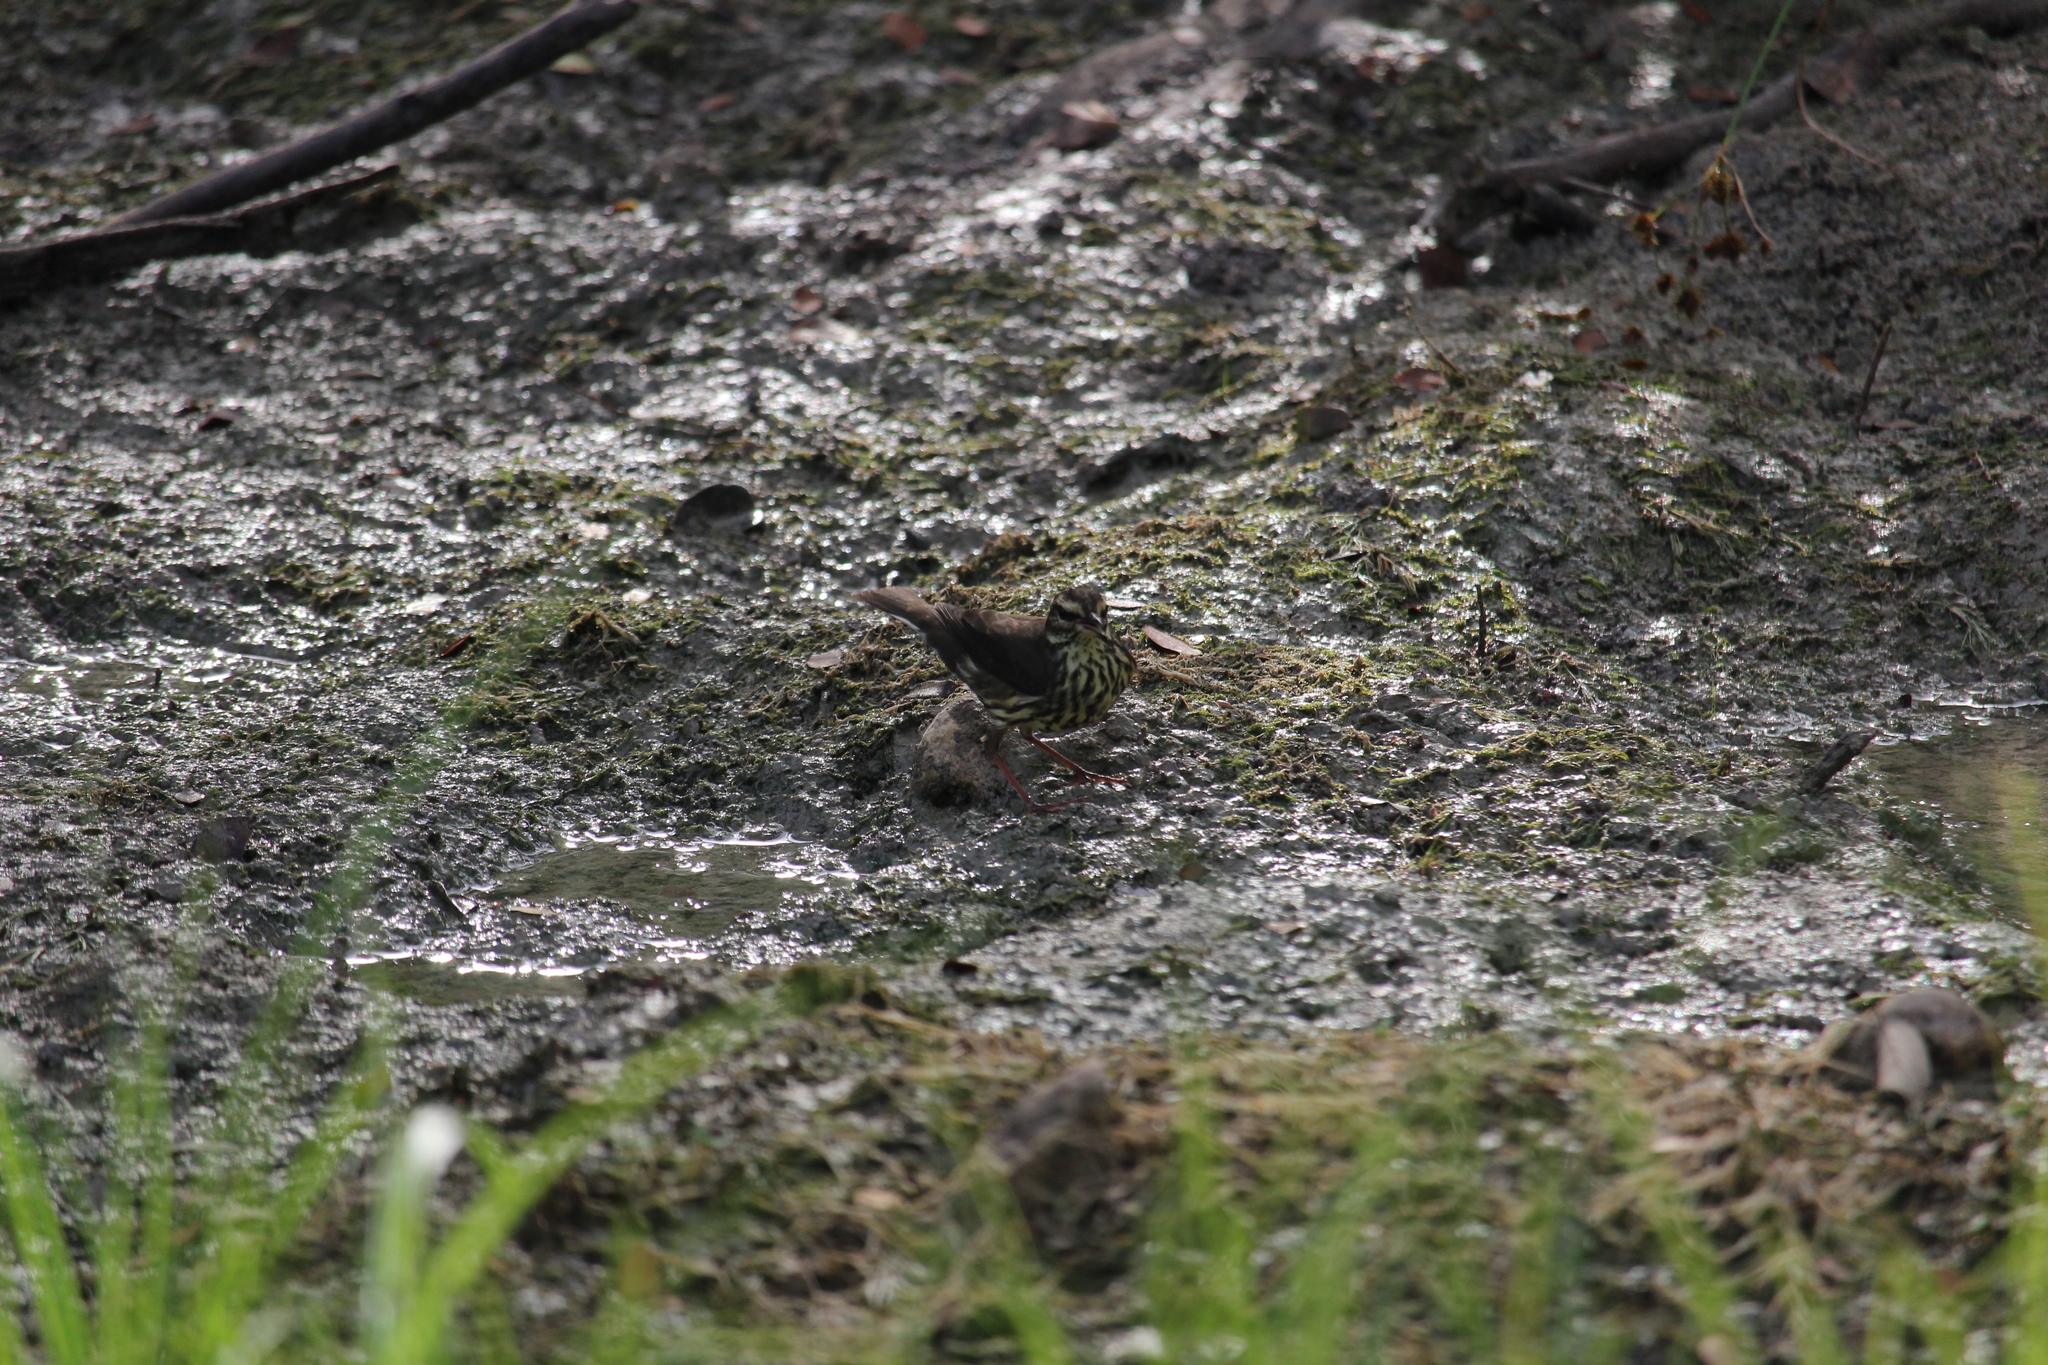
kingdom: Animalia
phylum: Chordata
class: Aves
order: Passeriformes
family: Parulidae
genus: Parkesia
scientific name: Parkesia noveboracensis
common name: Northern waterthrush
